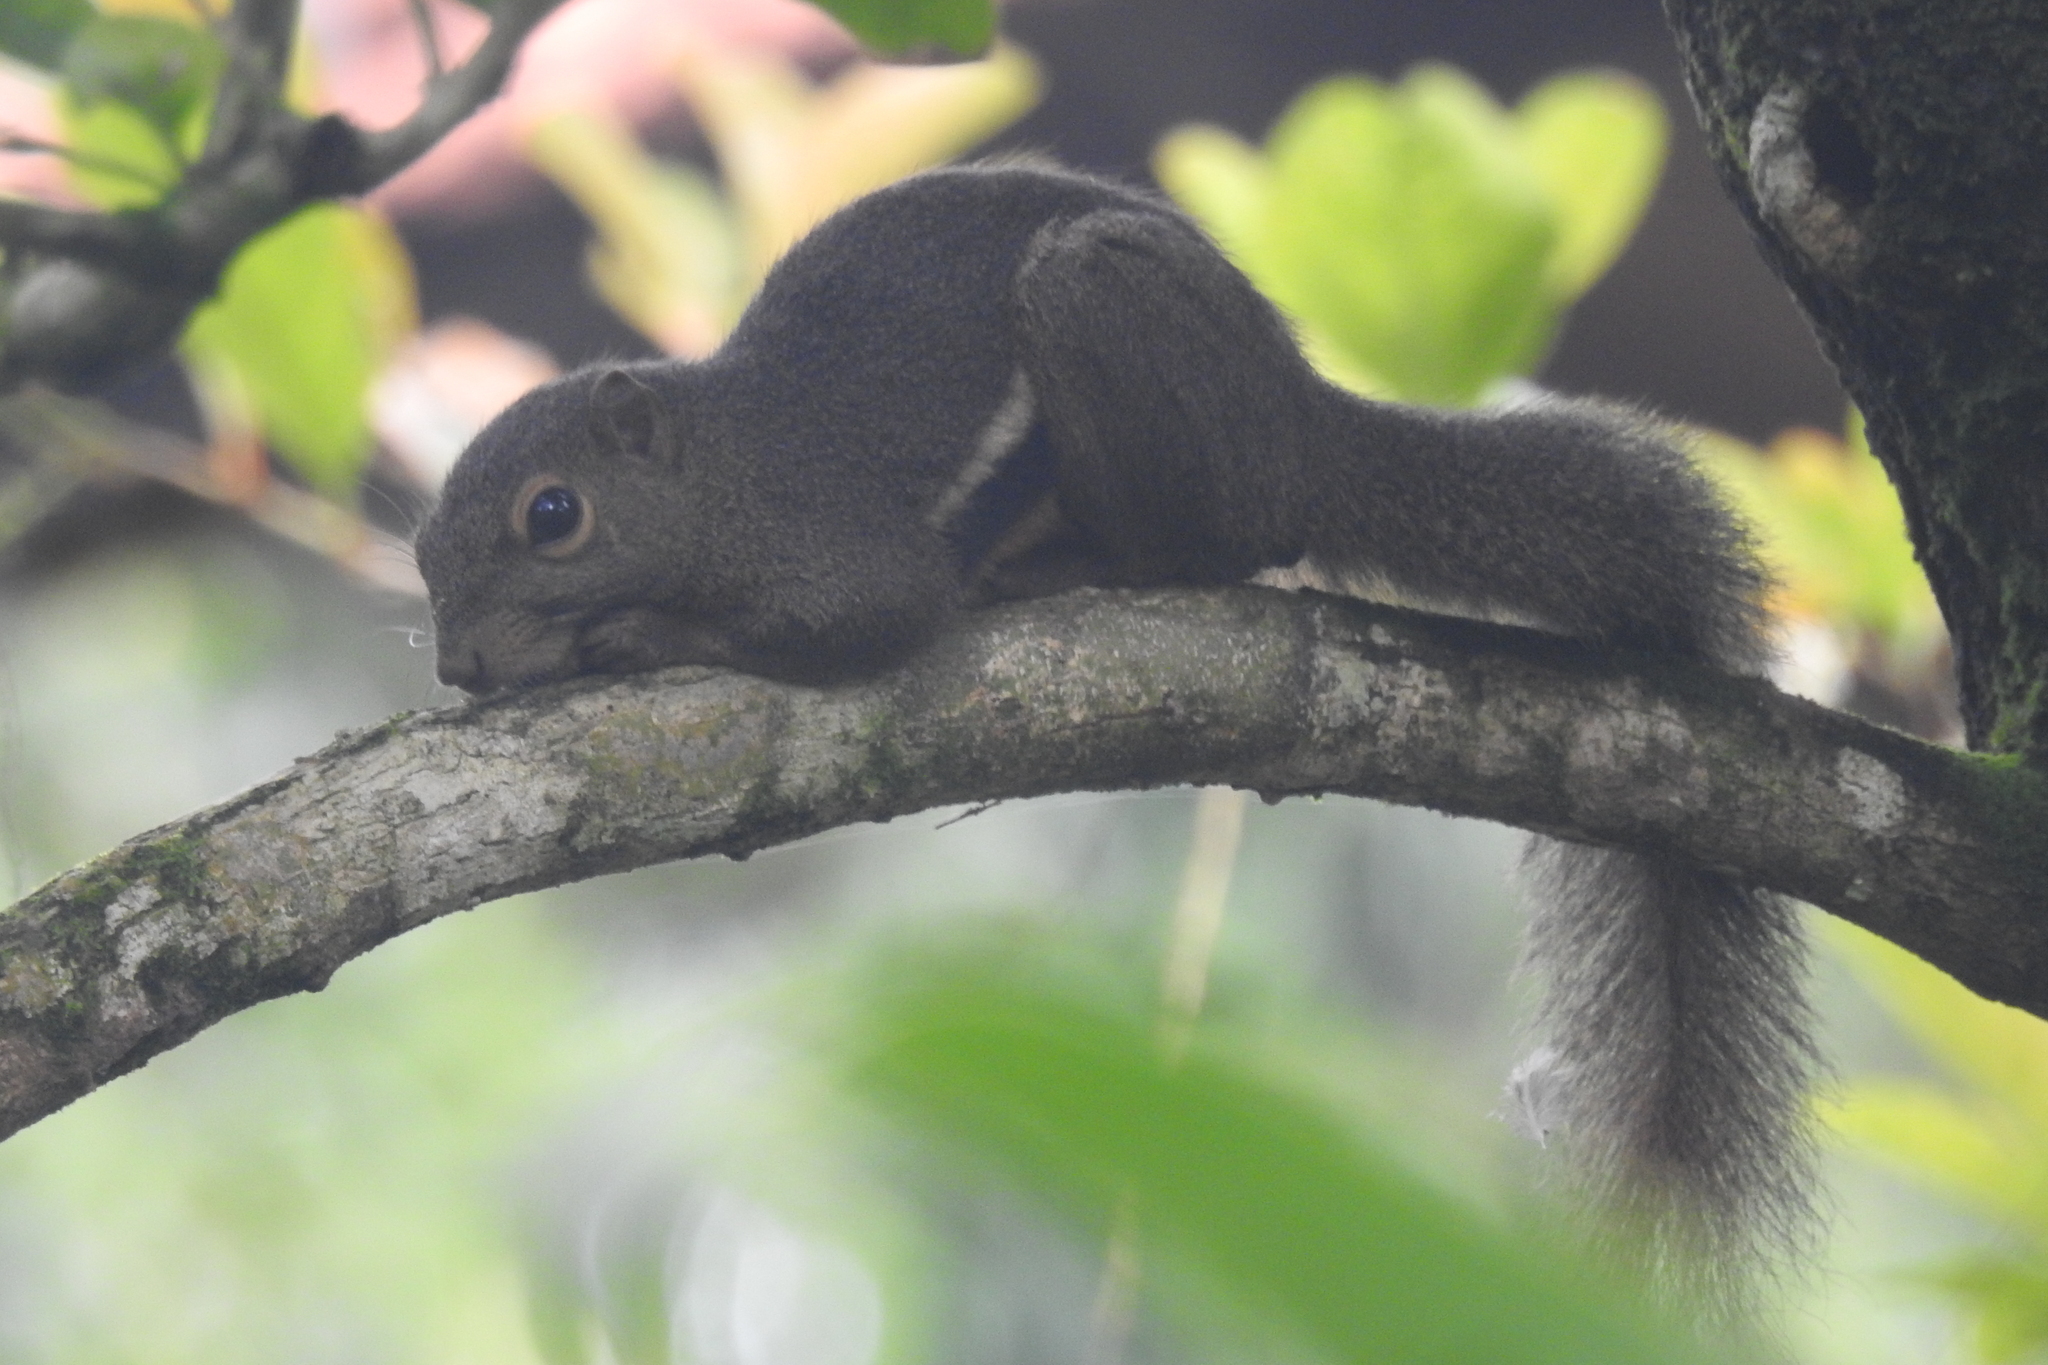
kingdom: Animalia
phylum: Chordata
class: Mammalia
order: Rodentia
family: Sciuridae
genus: Callosciurus
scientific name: Callosciurus notatus
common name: Plantain squirrel
